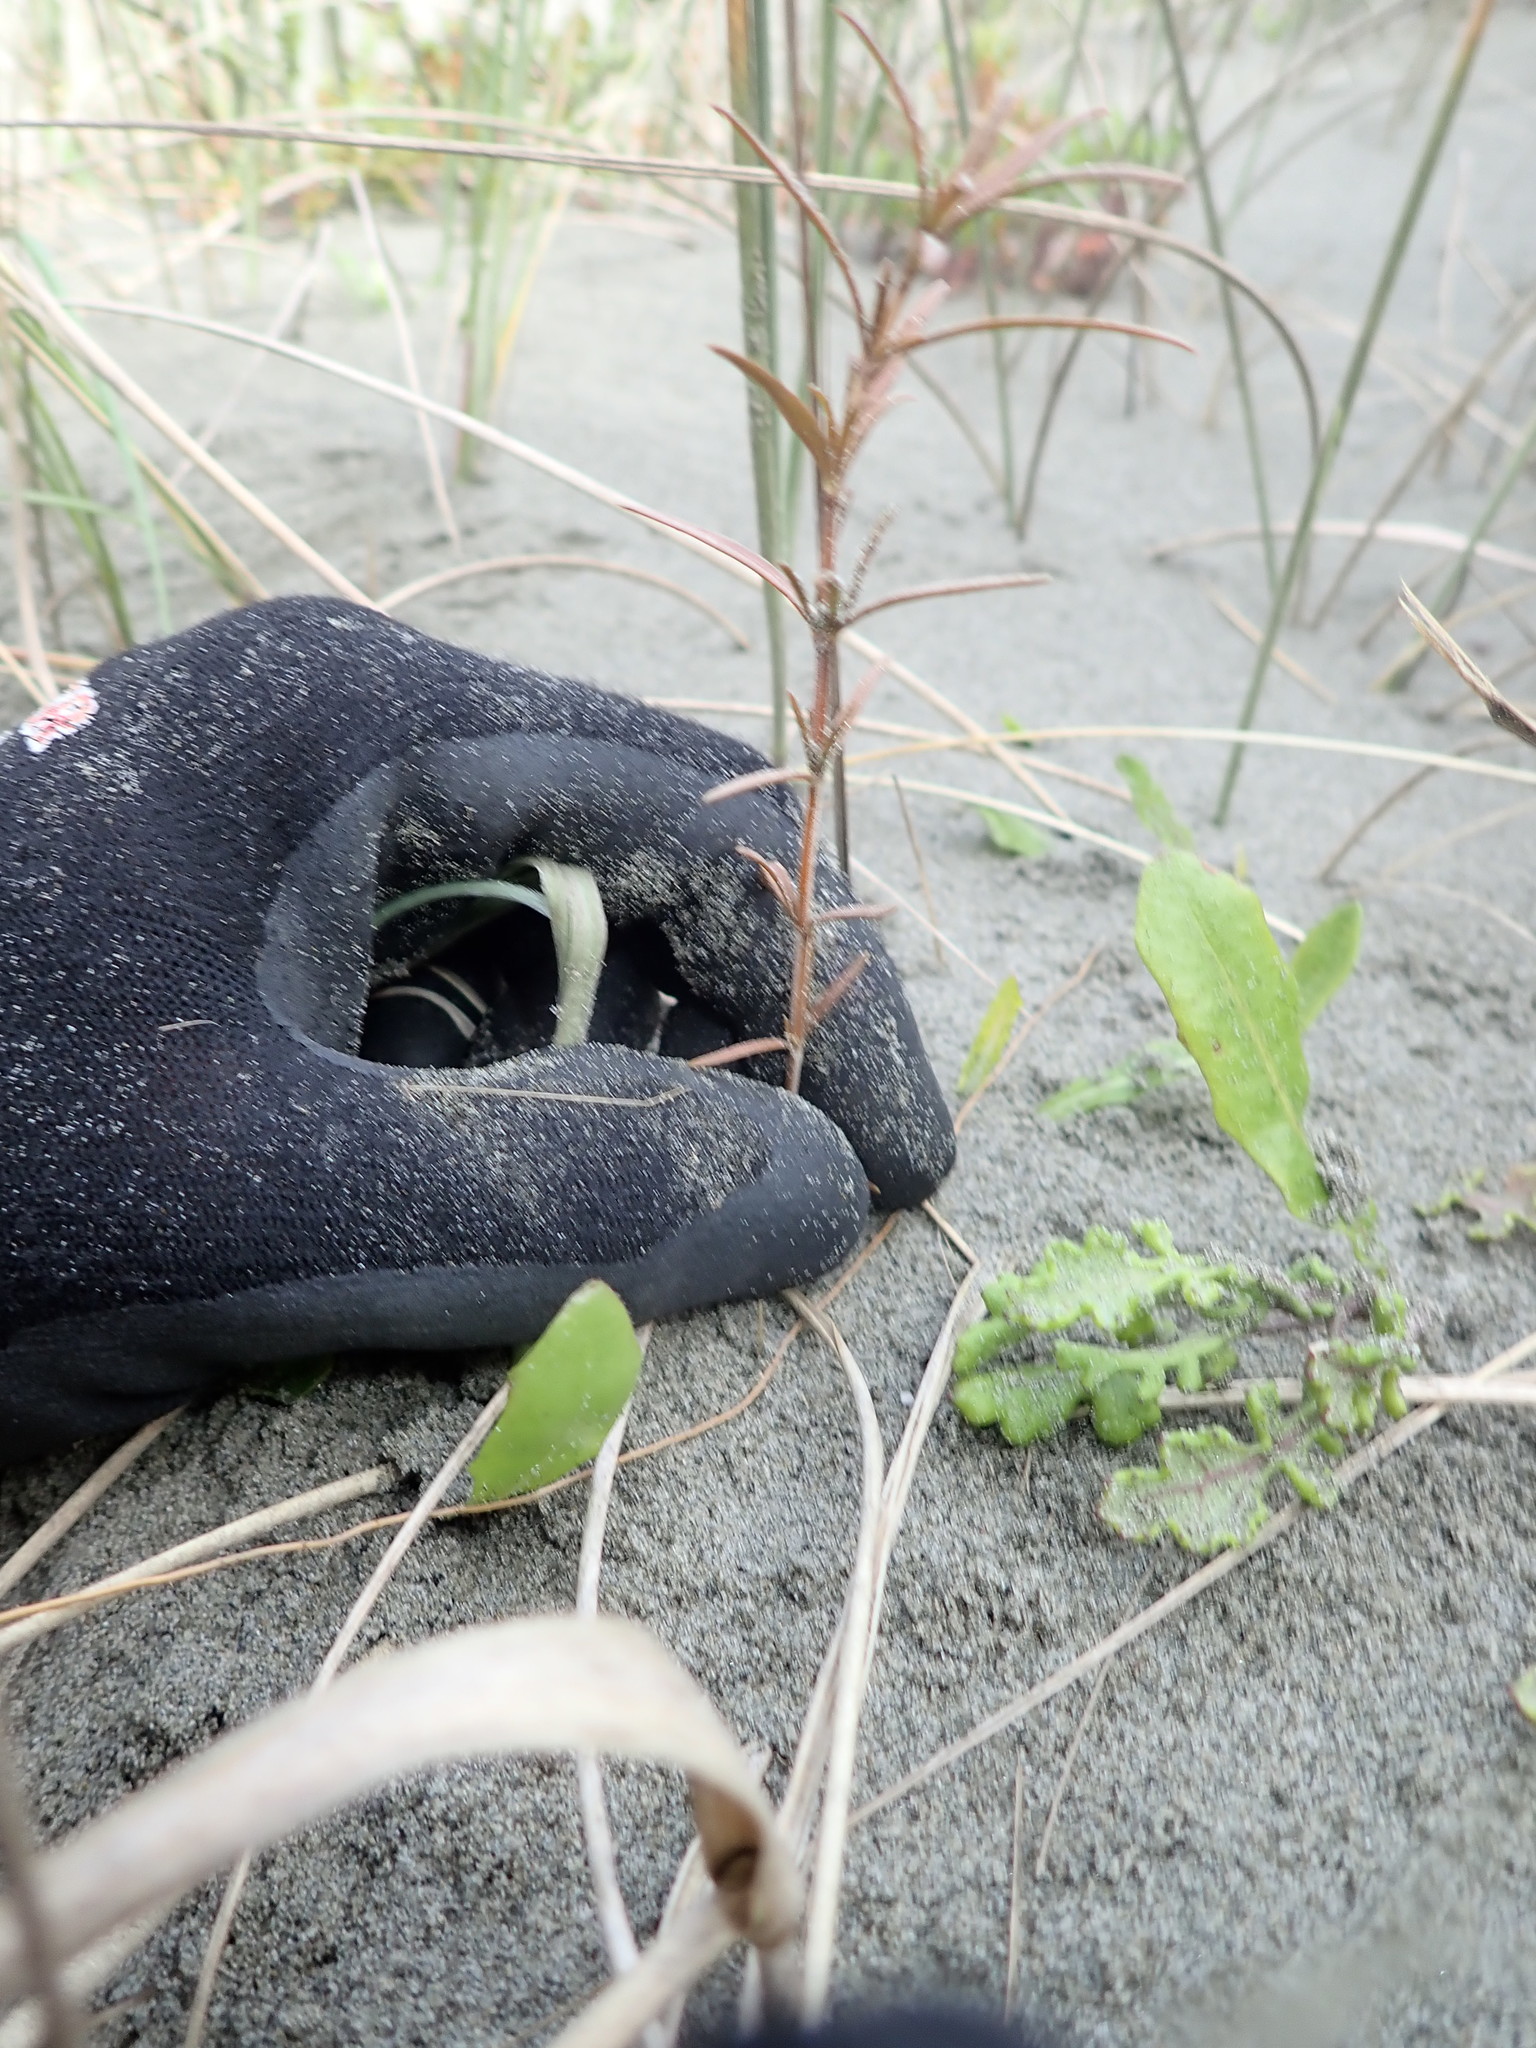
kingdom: Plantae
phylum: Tracheophyta
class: Magnoliopsida
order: Gentianales
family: Rubiaceae
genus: Coprosma
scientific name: Coprosma acerosa
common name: Sand coprosma
